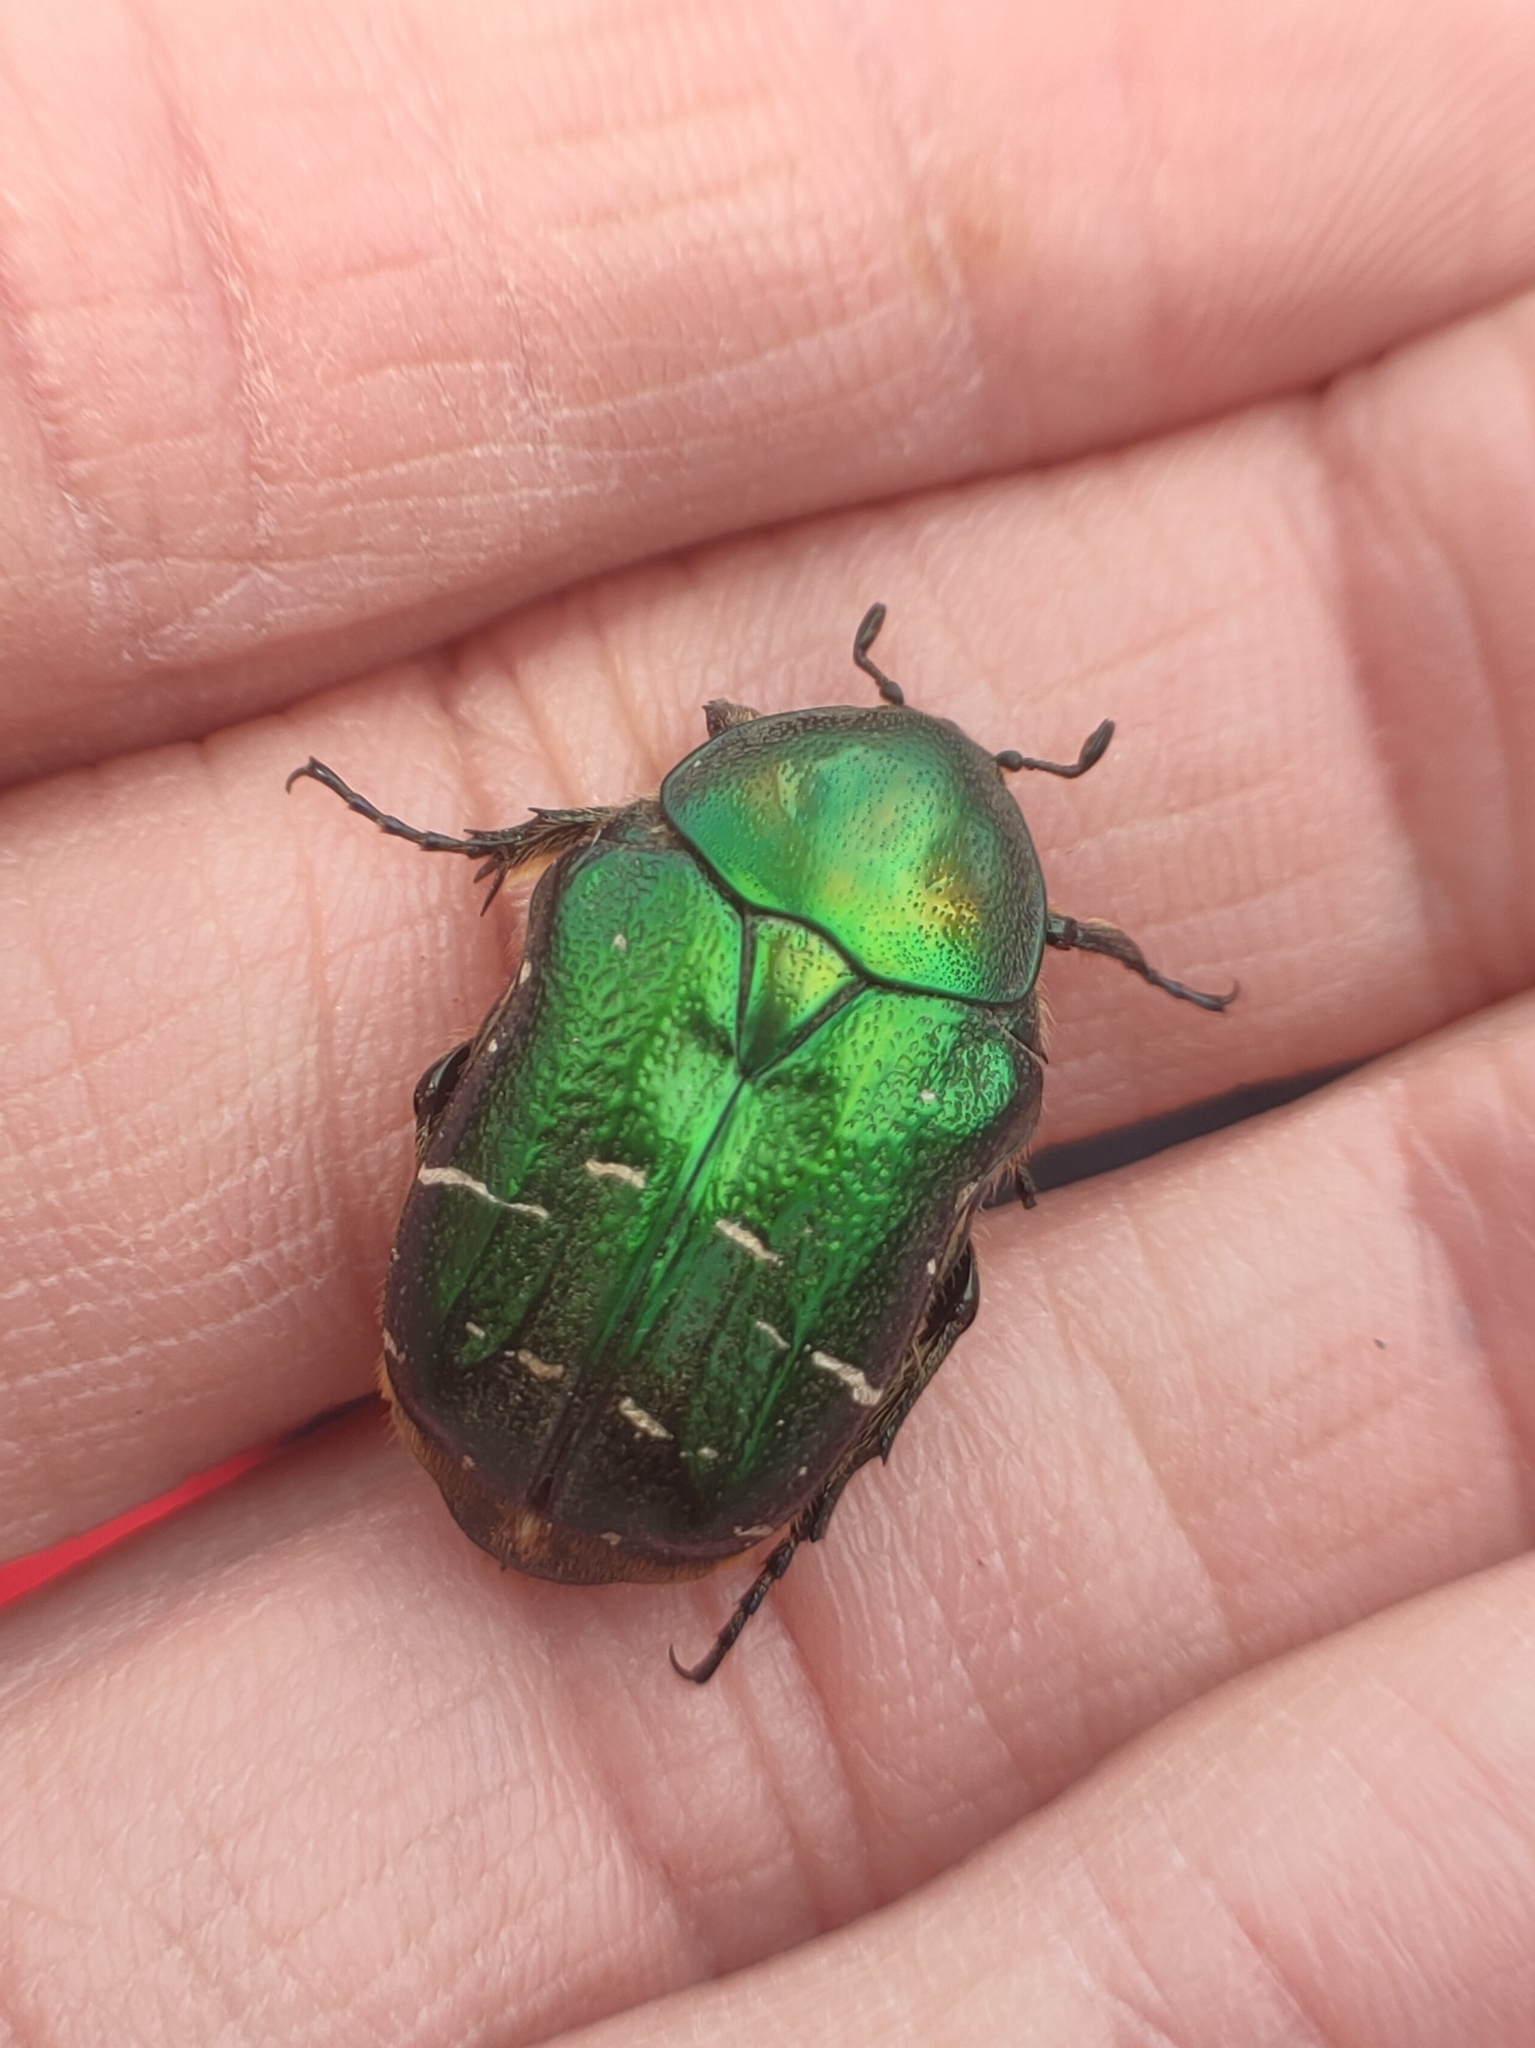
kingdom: Animalia
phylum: Arthropoda
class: Insecta
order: Coleoptera
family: Scarabaeidae
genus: Cetonia
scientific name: Cetonia aurata
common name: Rose chafer
